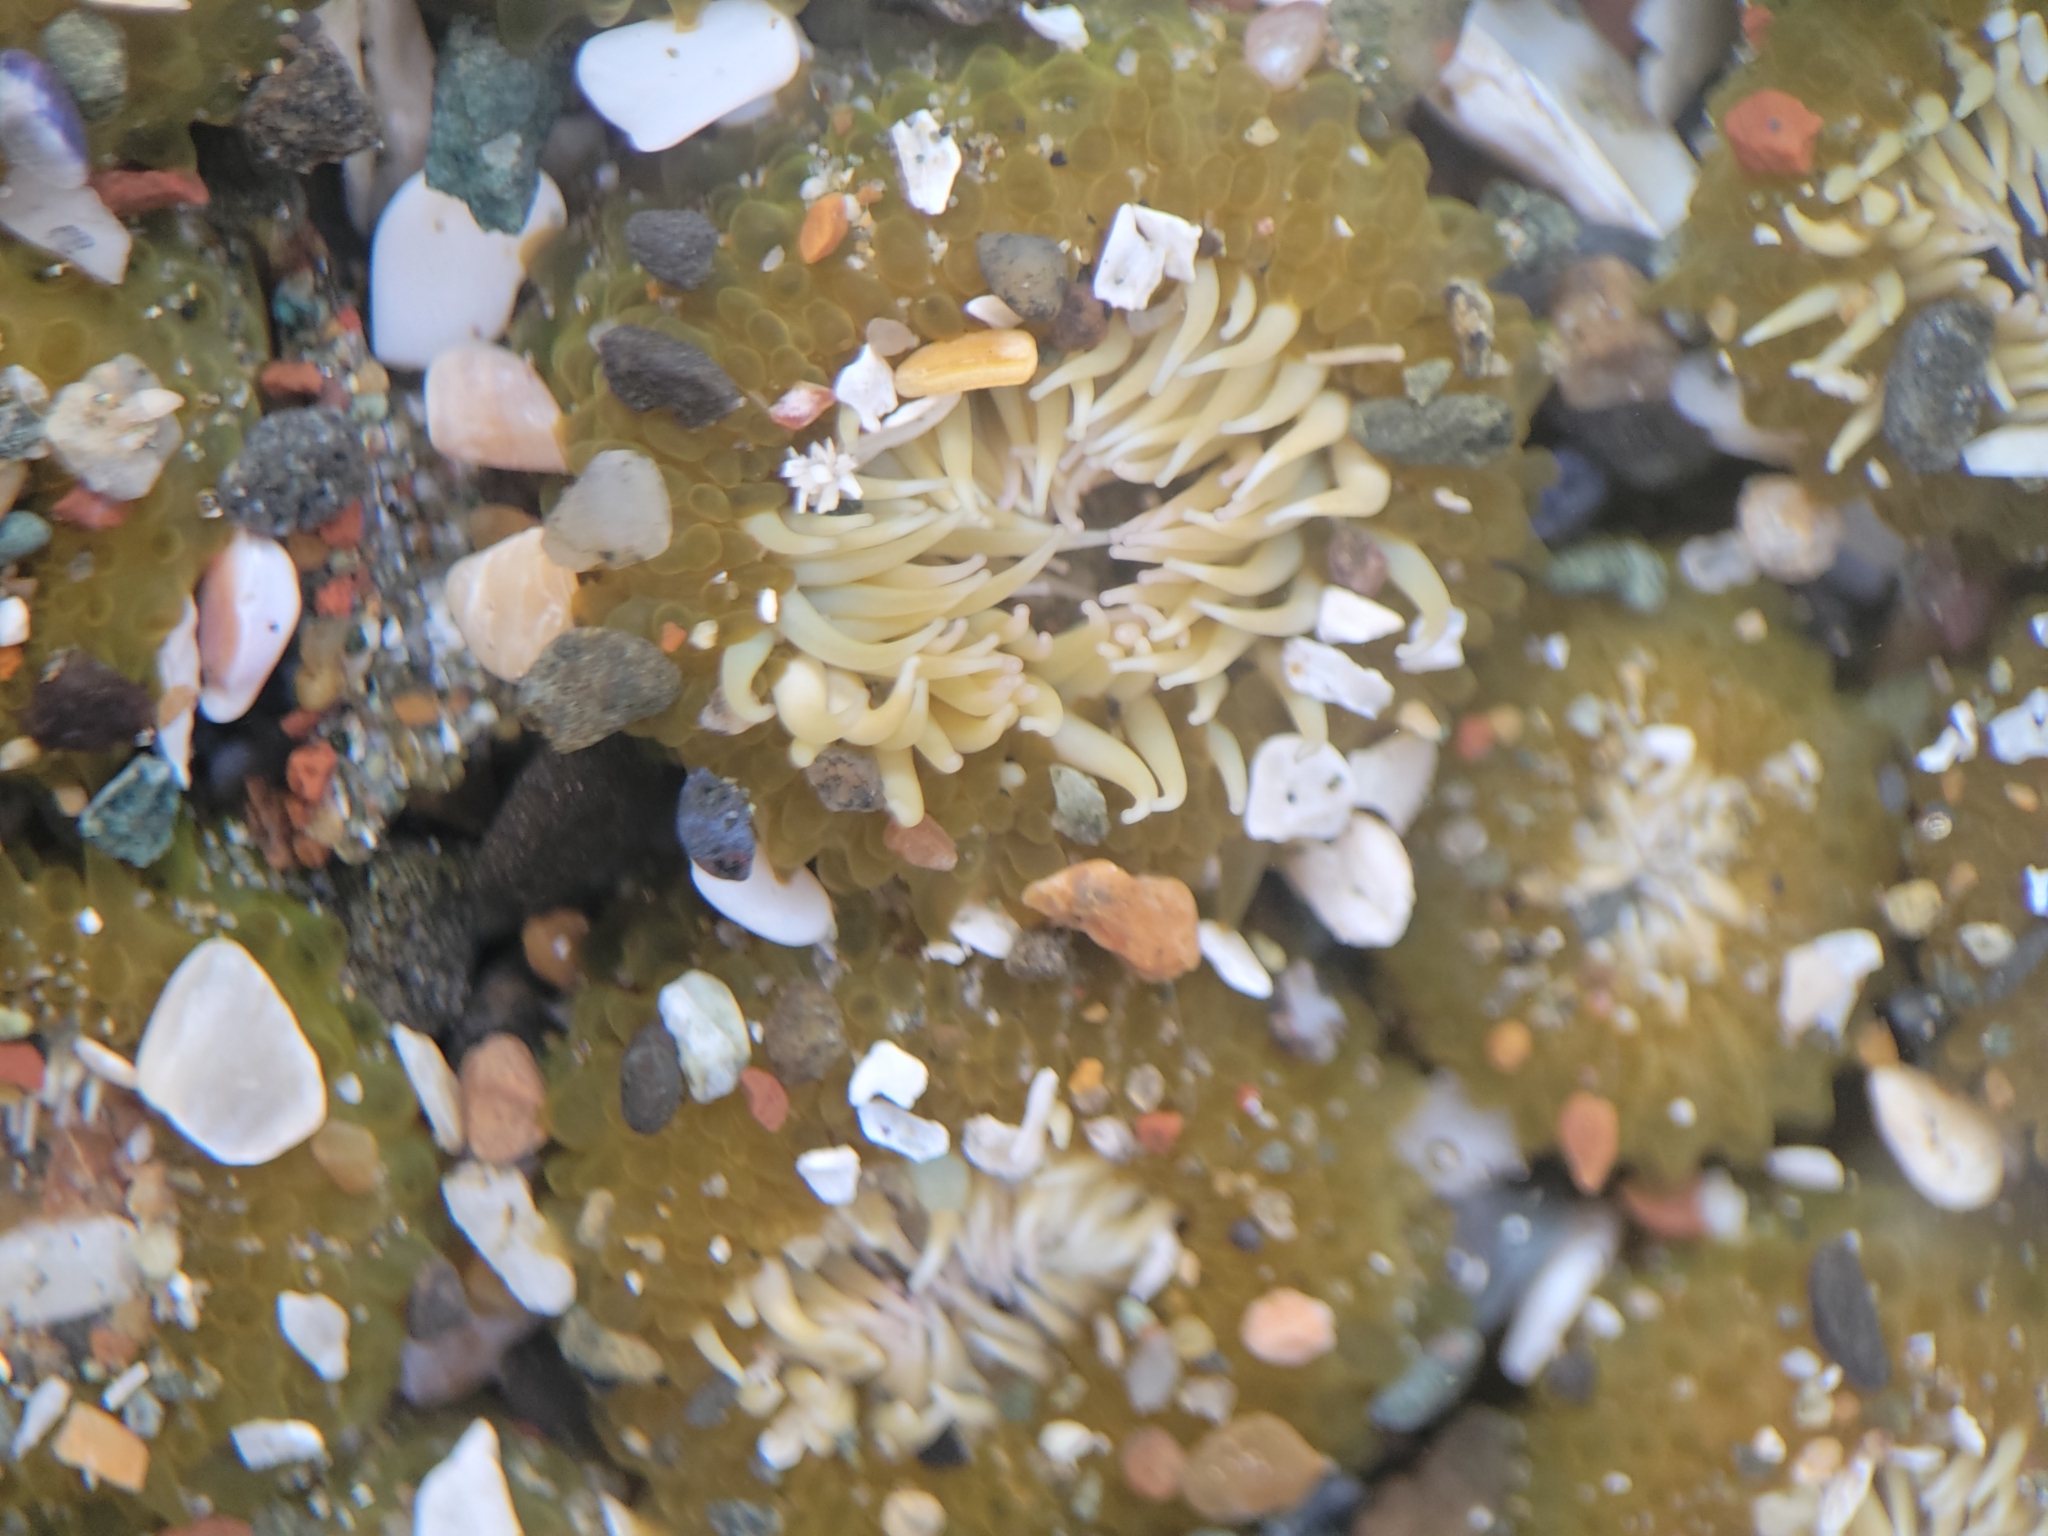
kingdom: Animalia
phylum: Cnidaria
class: Anthozoa
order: Actiniaria
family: Actiniidae
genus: Anthopleura
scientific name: Anthopleura elegantissima
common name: Clonal anemone
